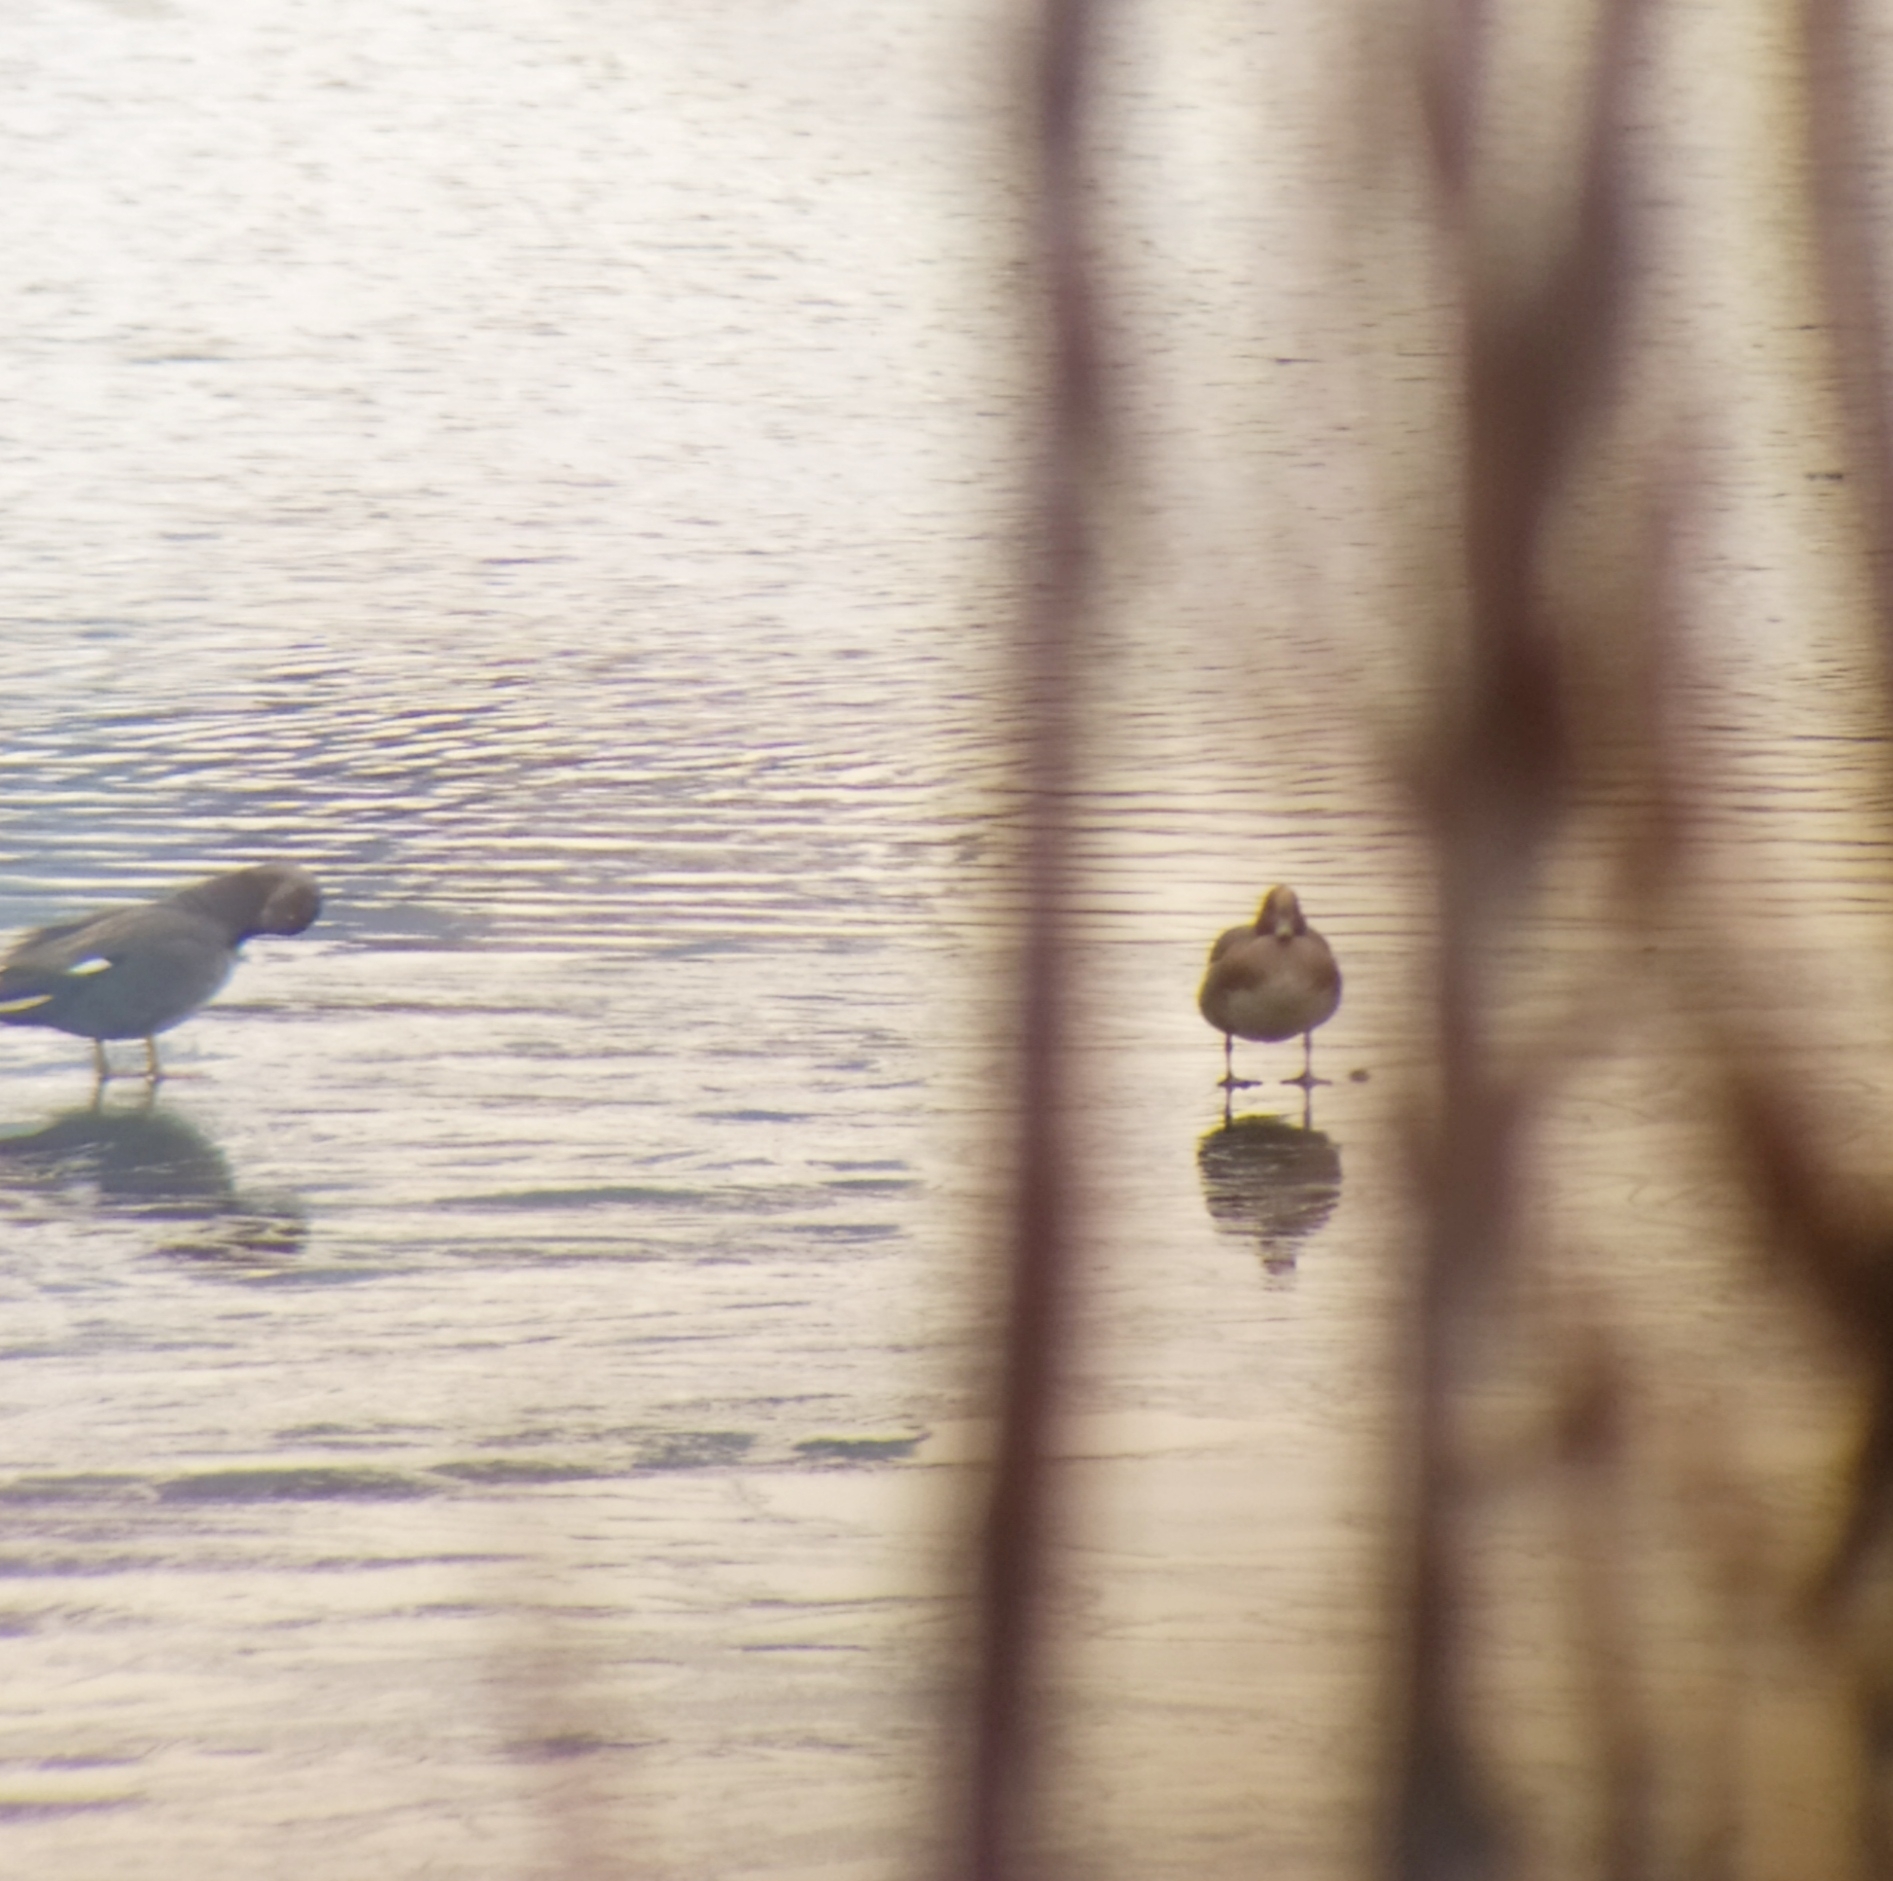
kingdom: Animalia
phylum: Chordata
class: Aves
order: Anseriformes
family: Anatidae
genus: Mareca
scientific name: Mareca penelope
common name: Eurasian wigeon
